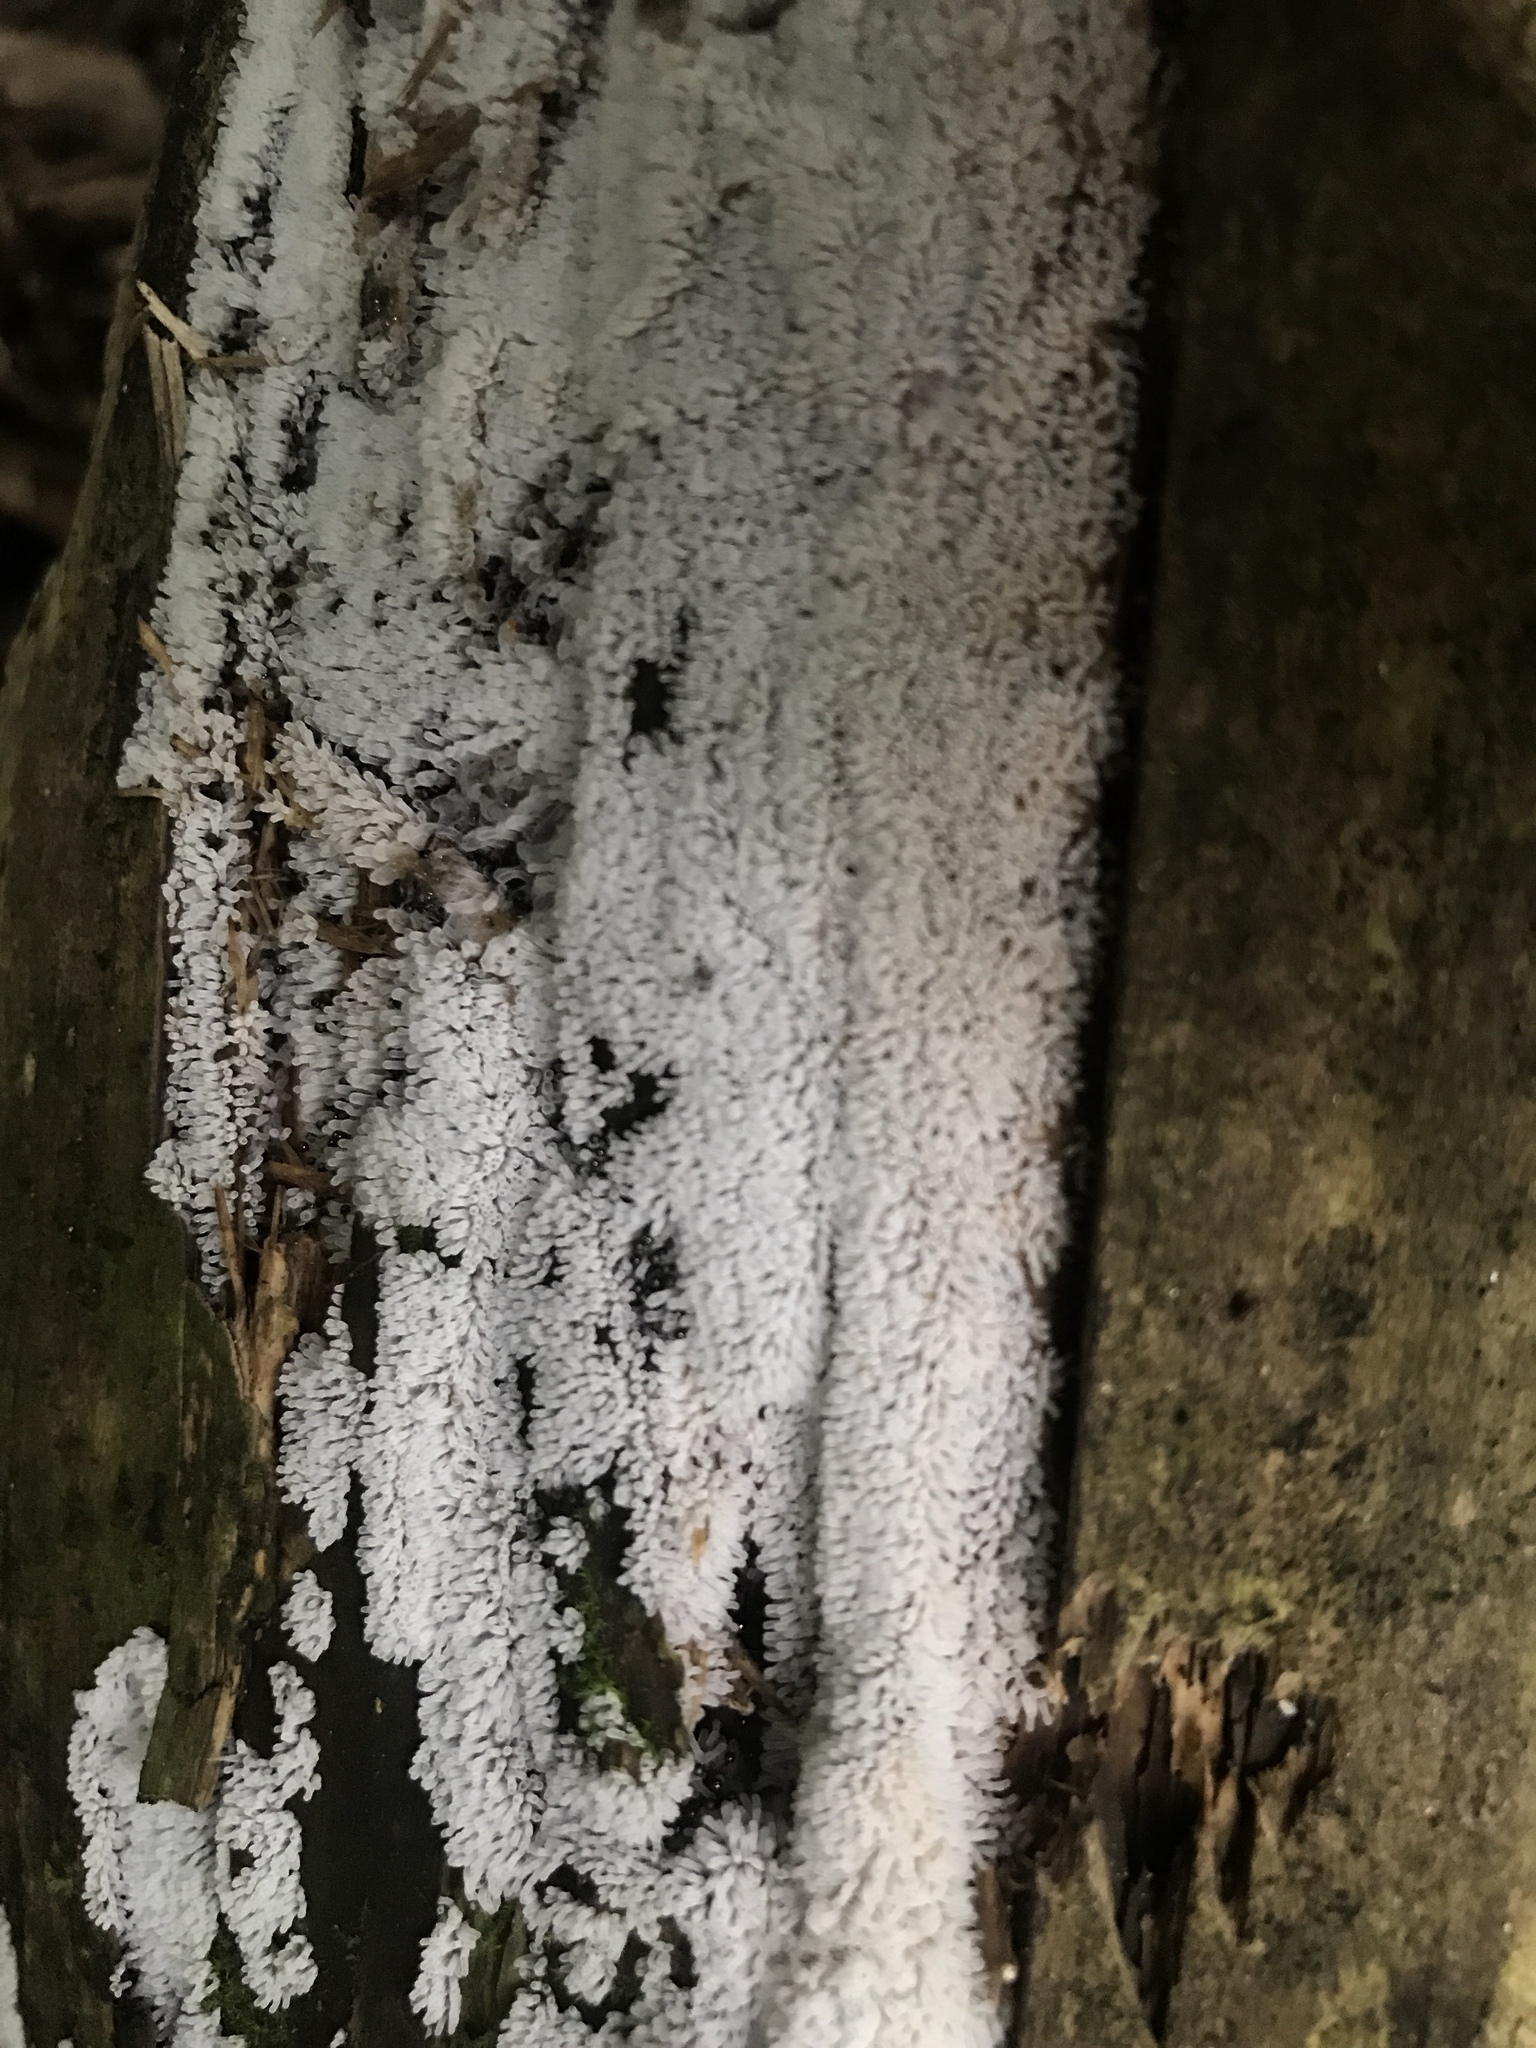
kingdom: Protozoa
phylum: Mycetozoa
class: Protosteliomycetes
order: Ceratiomyxales
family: Ceratiomyxaceae
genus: Ceratiomyxa
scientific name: Ceratiomyxa fruticulosa
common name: Honeycomb coral slime mold
